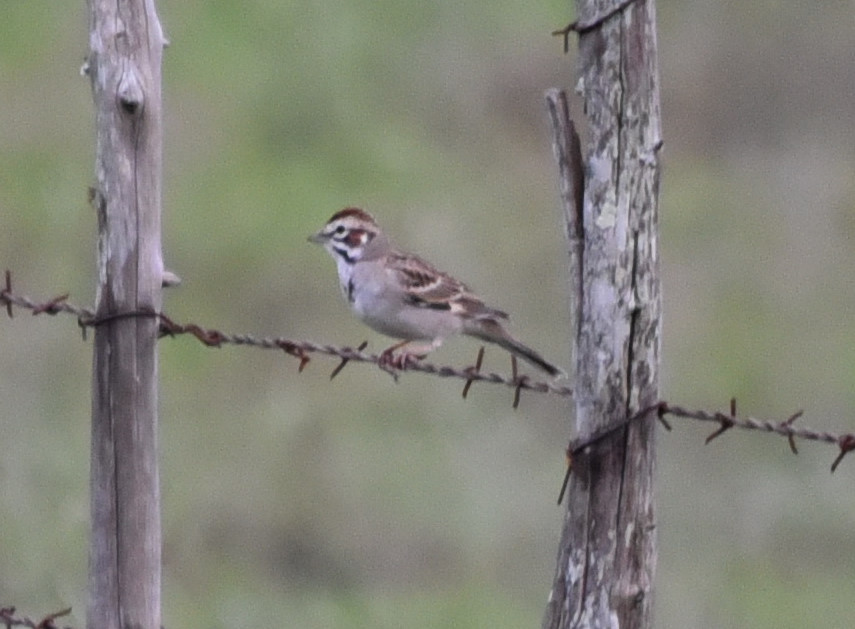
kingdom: Animalia
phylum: Chordata
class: Aves
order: Passeriformes
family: Passerellidae
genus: Chondestes
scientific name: Chondestes grammacus
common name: Lark sparrow
